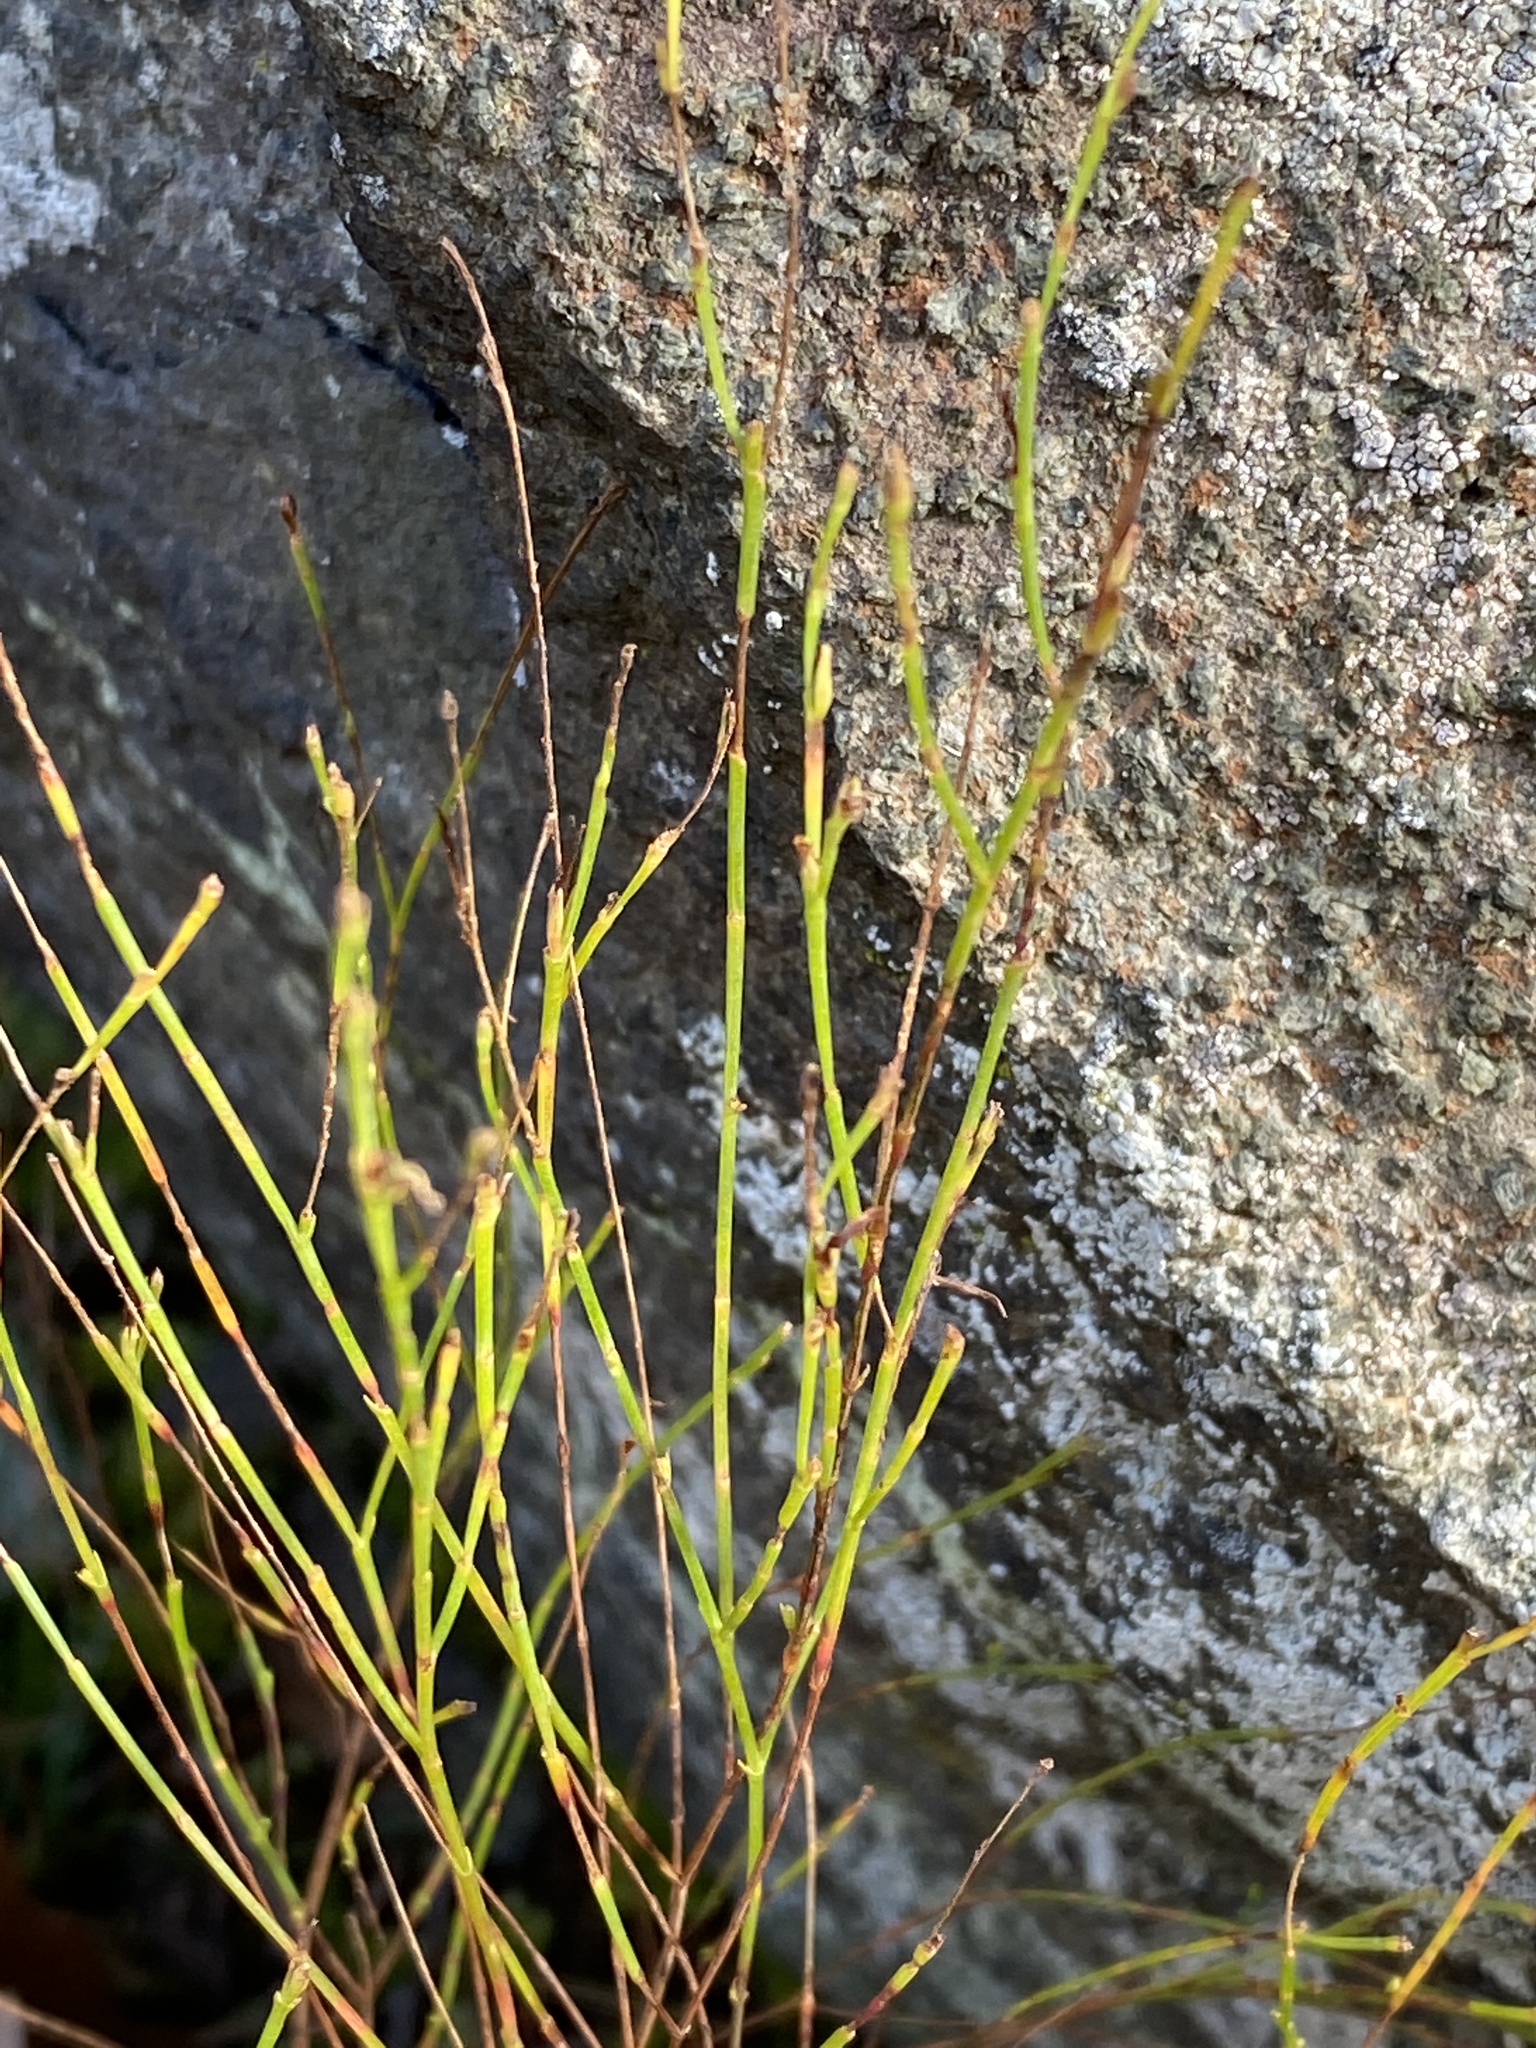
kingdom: Plantae
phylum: Tracheophyta
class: Magnoliopsida
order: Malpighiales
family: Hypericaceae
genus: Hypericum
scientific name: Hypericum gentianoides
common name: Gentian-leaved st. john's-wort
